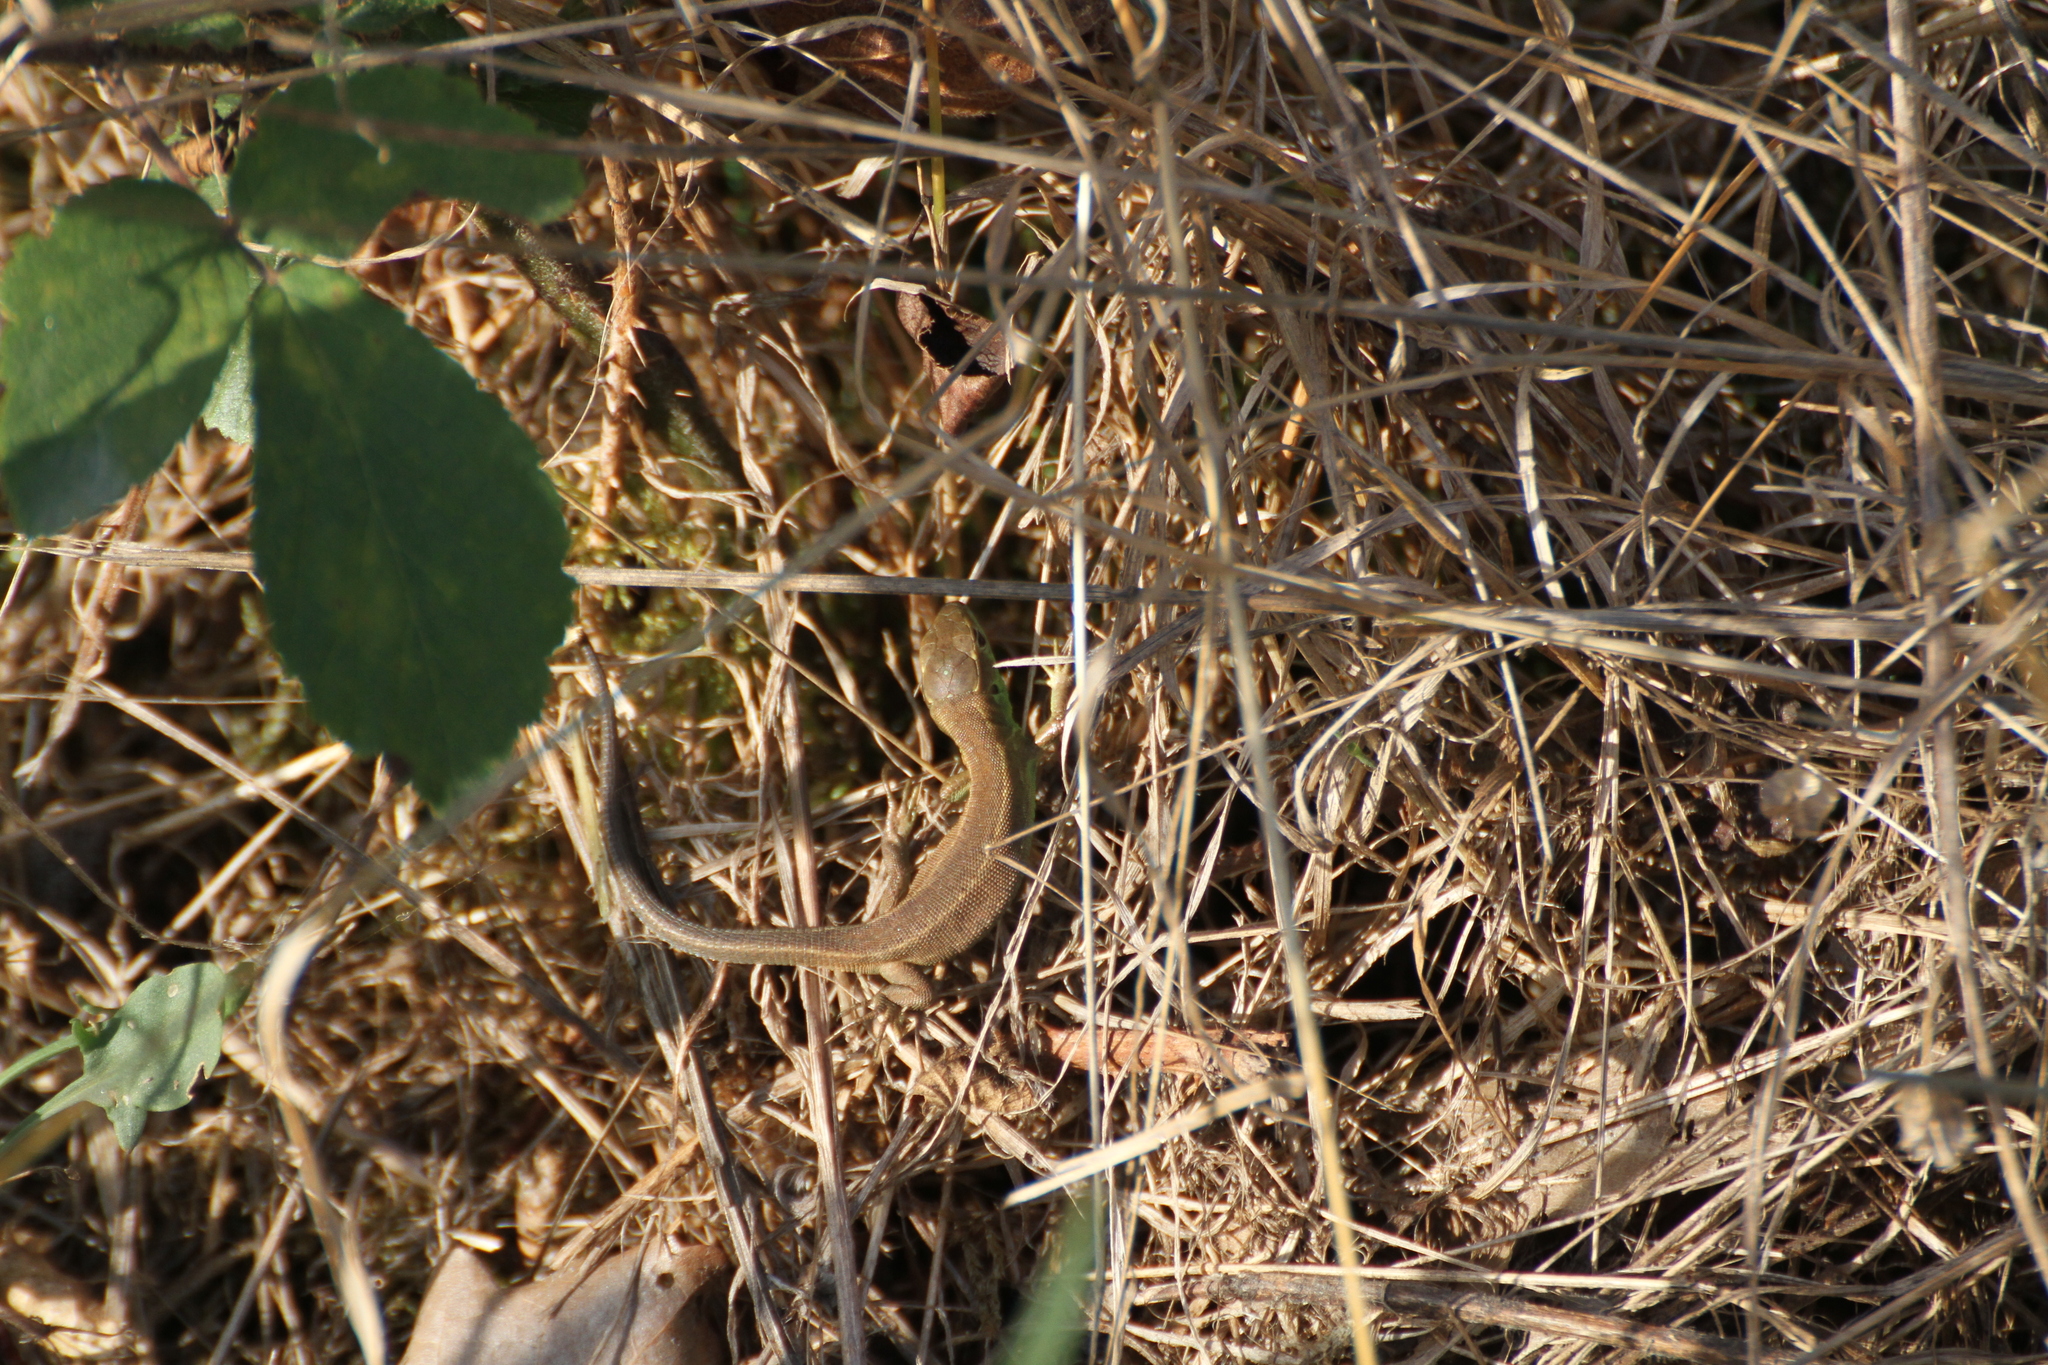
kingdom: Animalia
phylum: Chordata
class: Squamata
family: Lacertidae
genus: Lacerta
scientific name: Lacerta bilineata
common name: Western green lizard
